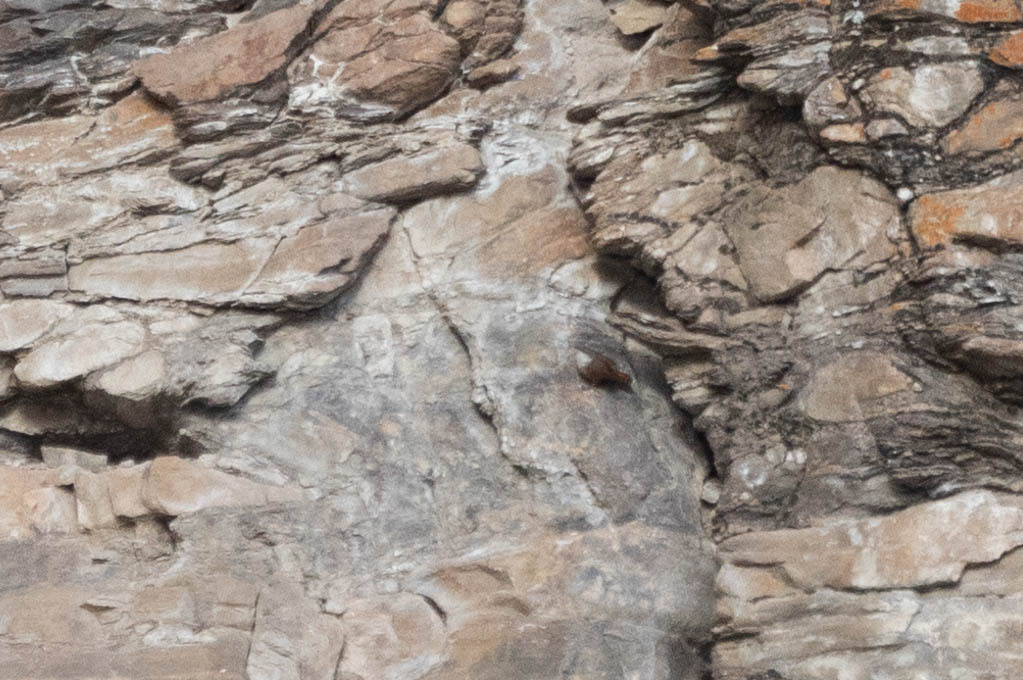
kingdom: Animalia
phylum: Chordata
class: Aves
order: Passeriformes
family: Troglodytidae
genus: Catherpes
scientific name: Catherpes mexicanus
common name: Canyon wren
